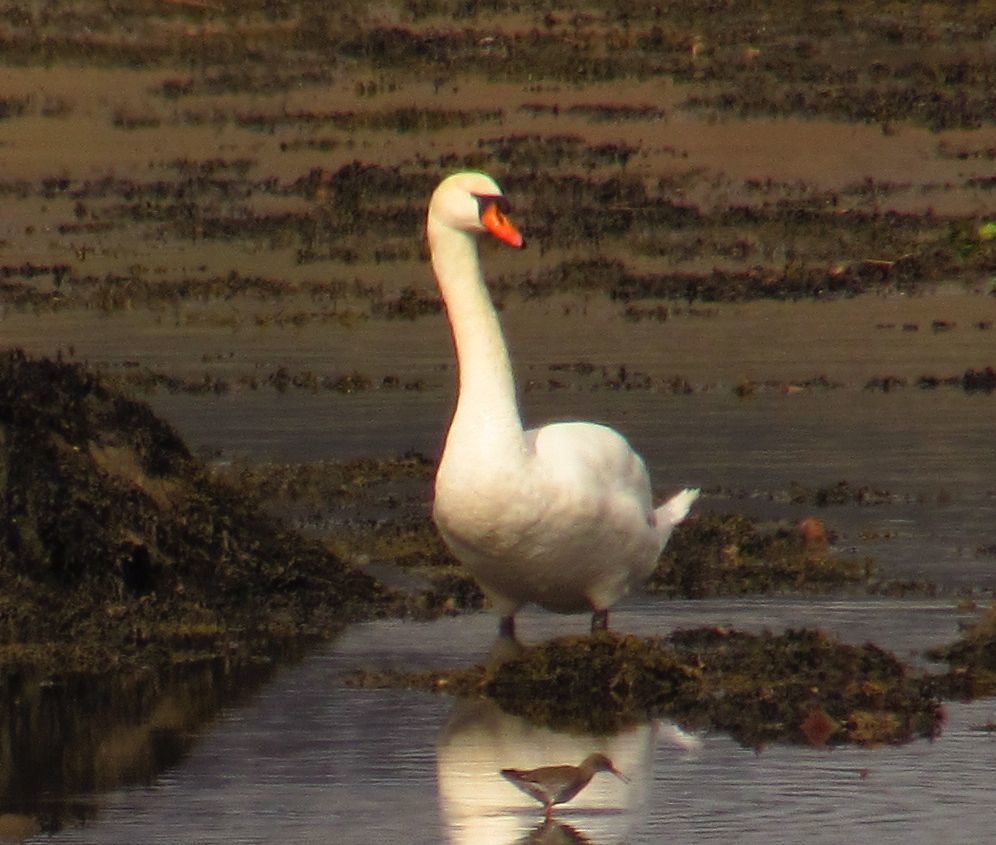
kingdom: Animalia
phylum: Chordata
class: Aves
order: Anseriformes
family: Anatidae
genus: Cygnus
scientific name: Cygnus olor
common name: Mute swan
